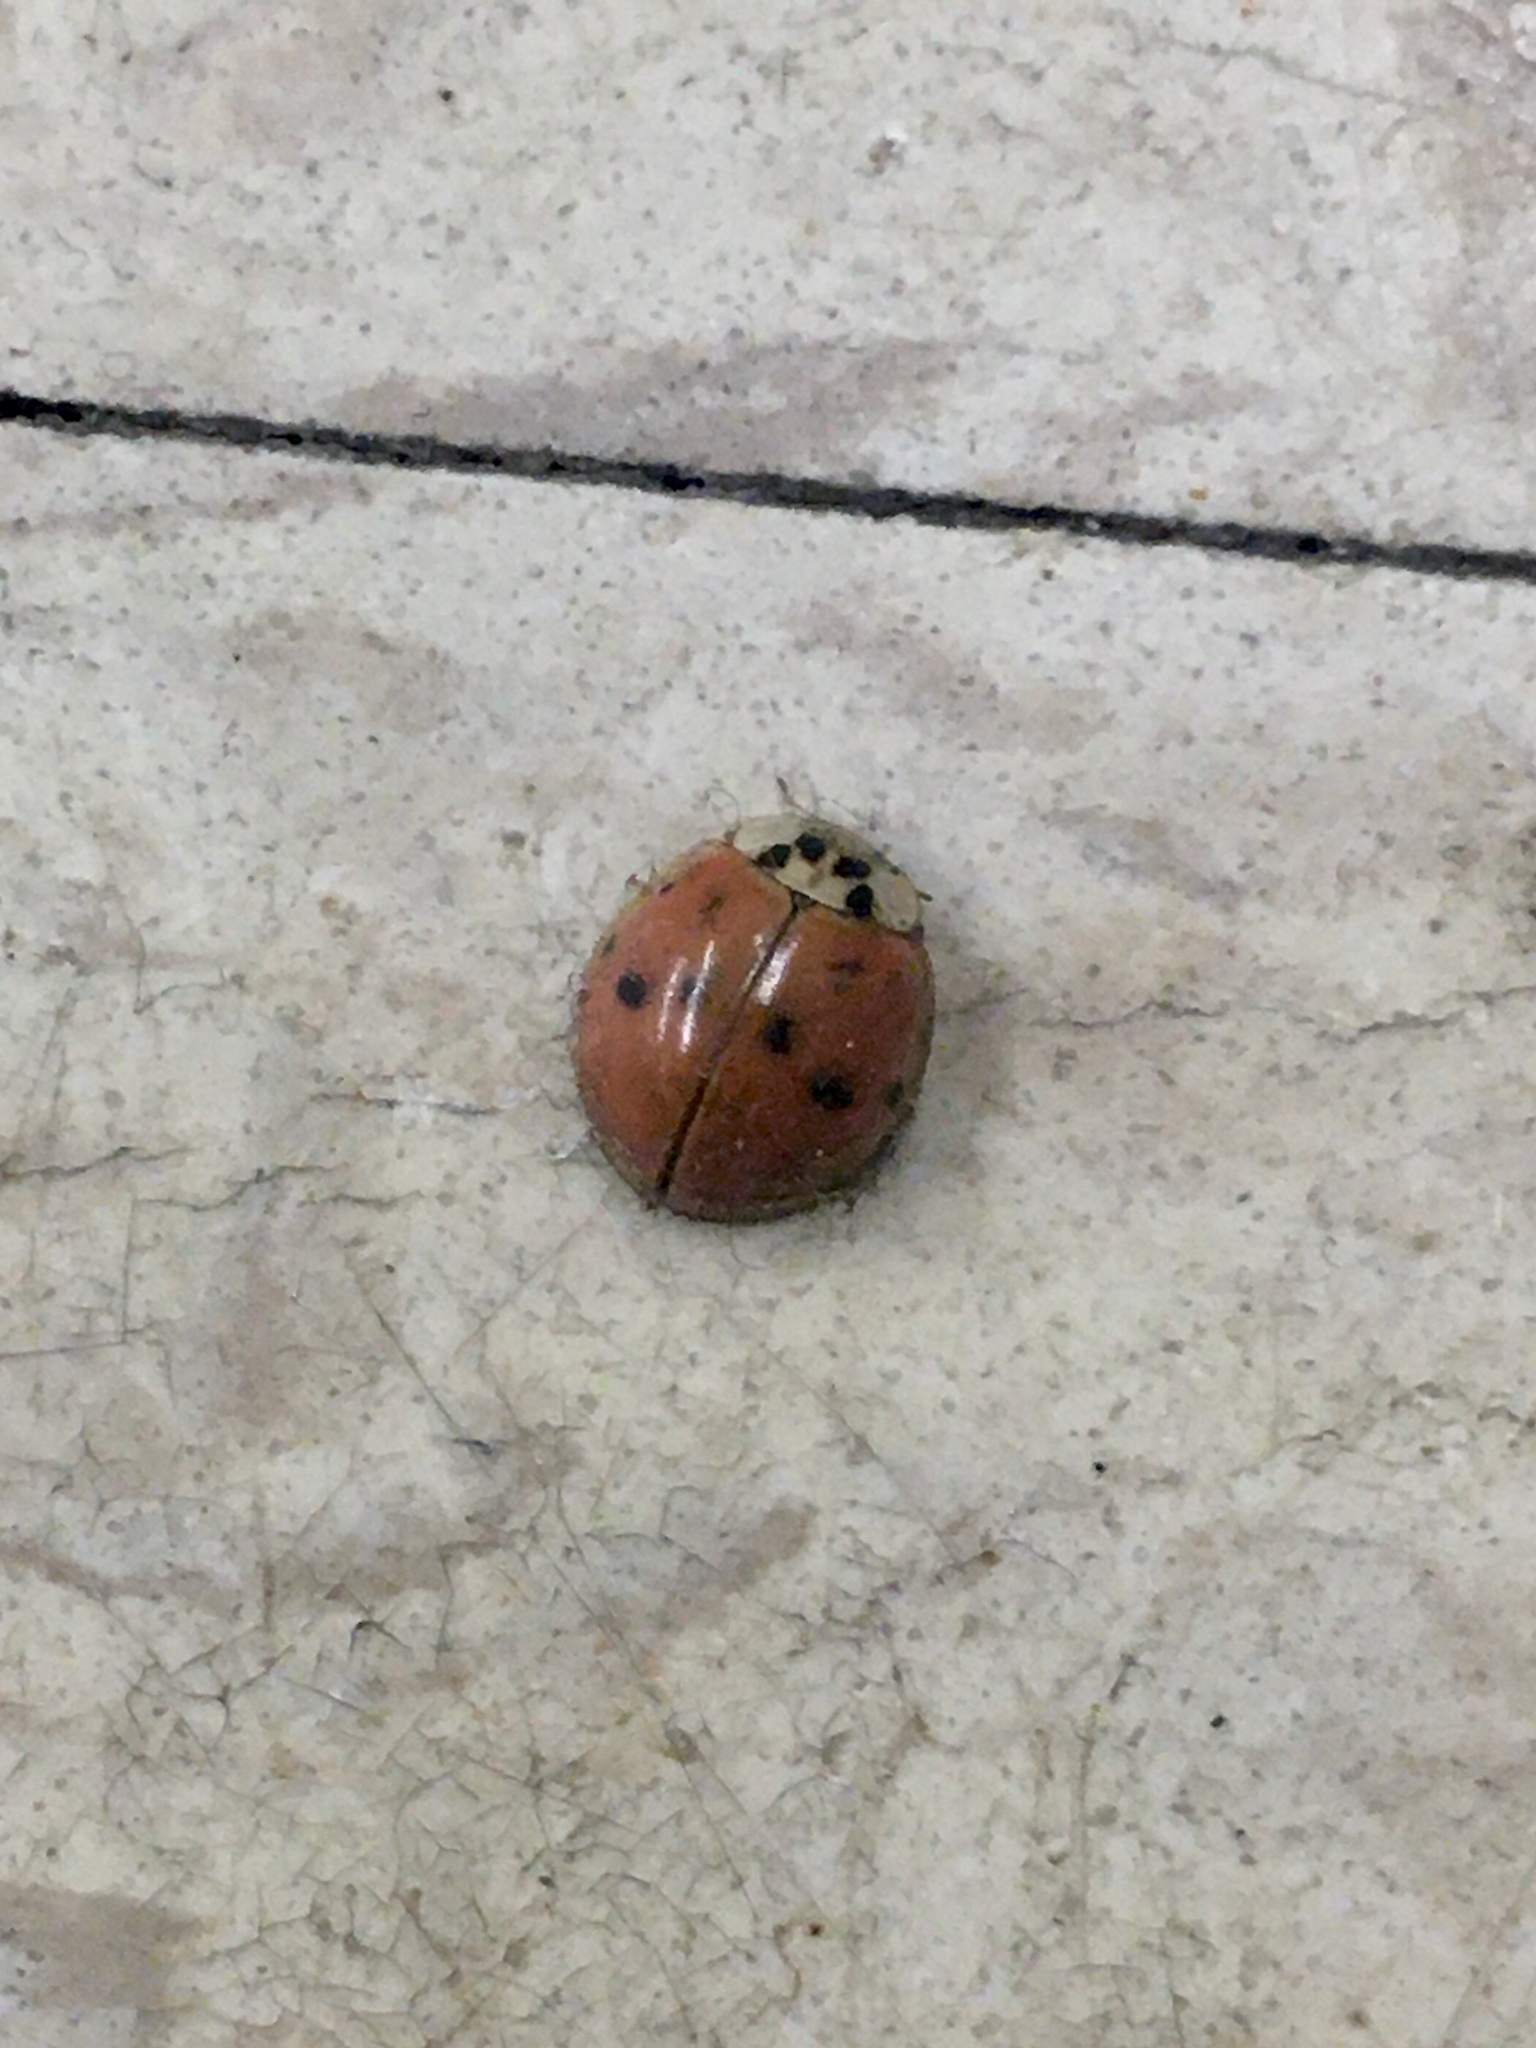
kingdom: Animalia
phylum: Arthropoda
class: Insecta
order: Coleoptera
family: Coccinellidae
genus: Harmonia
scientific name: Harmonia axyridis
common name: Harlequin ladybird
